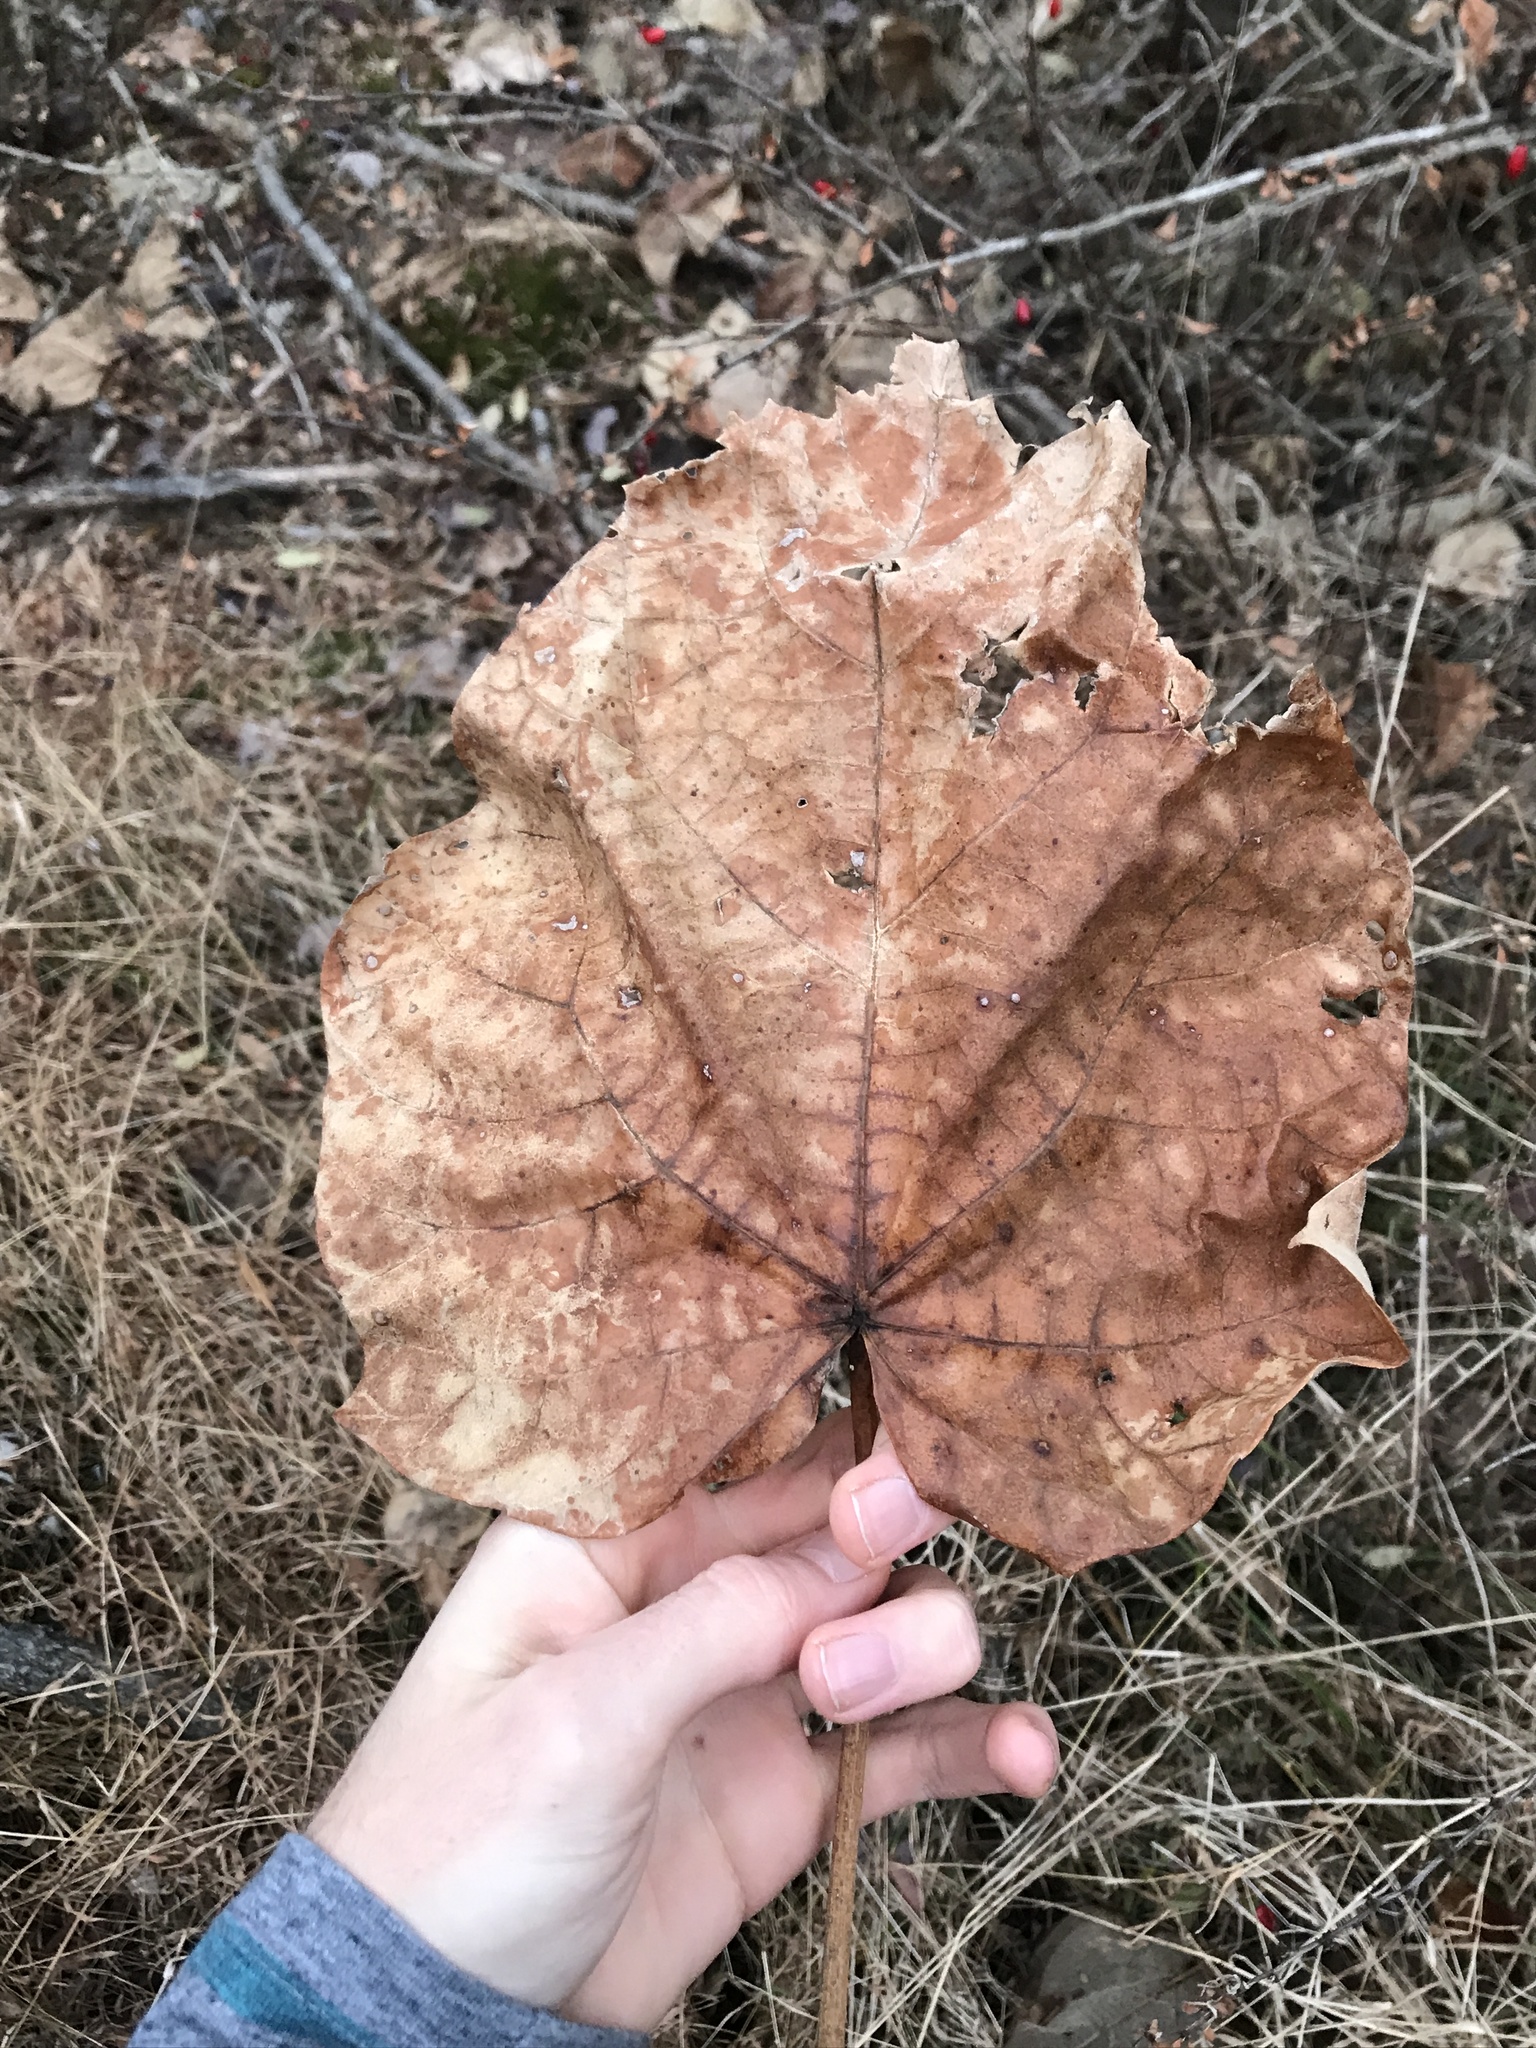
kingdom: Plantae
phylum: Tracheophyta
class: Magnoliopsida
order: Lamiales
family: Paulowniaceae
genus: Paulownia
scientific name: Paulownia tomentosa
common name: Foxglove-tree
